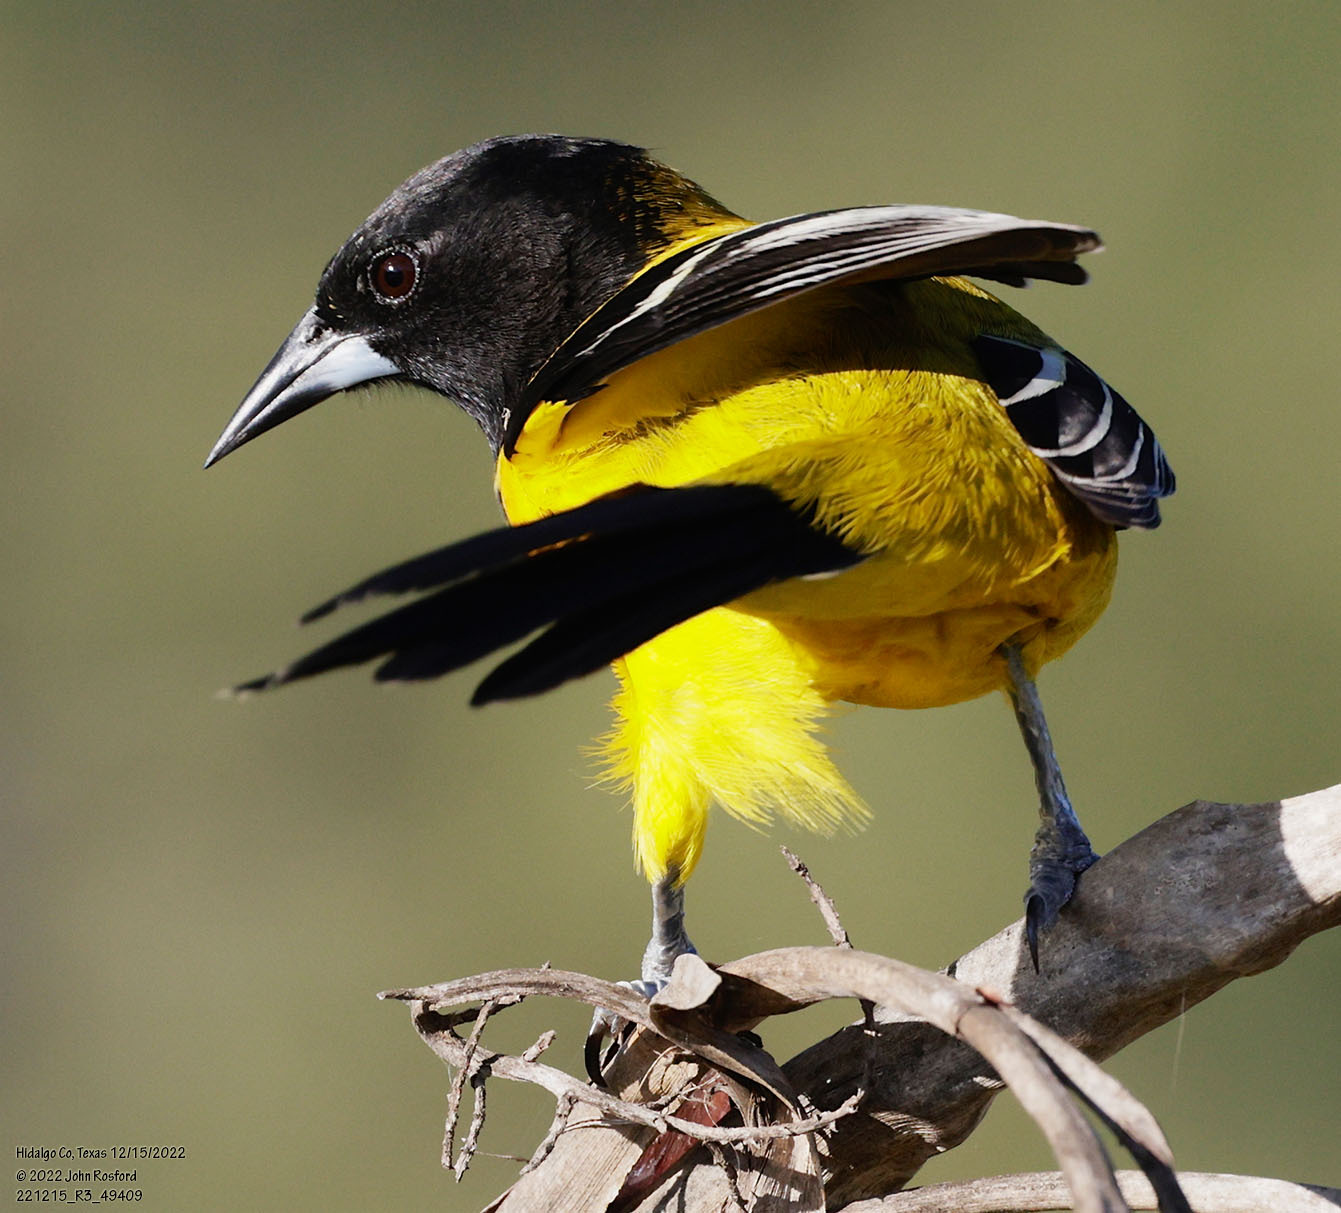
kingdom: Animalia
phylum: Chordata
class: Aves
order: Passeriformes
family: Icteridae
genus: Icterus
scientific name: Icterus graduacauda
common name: Audubon's oriole
